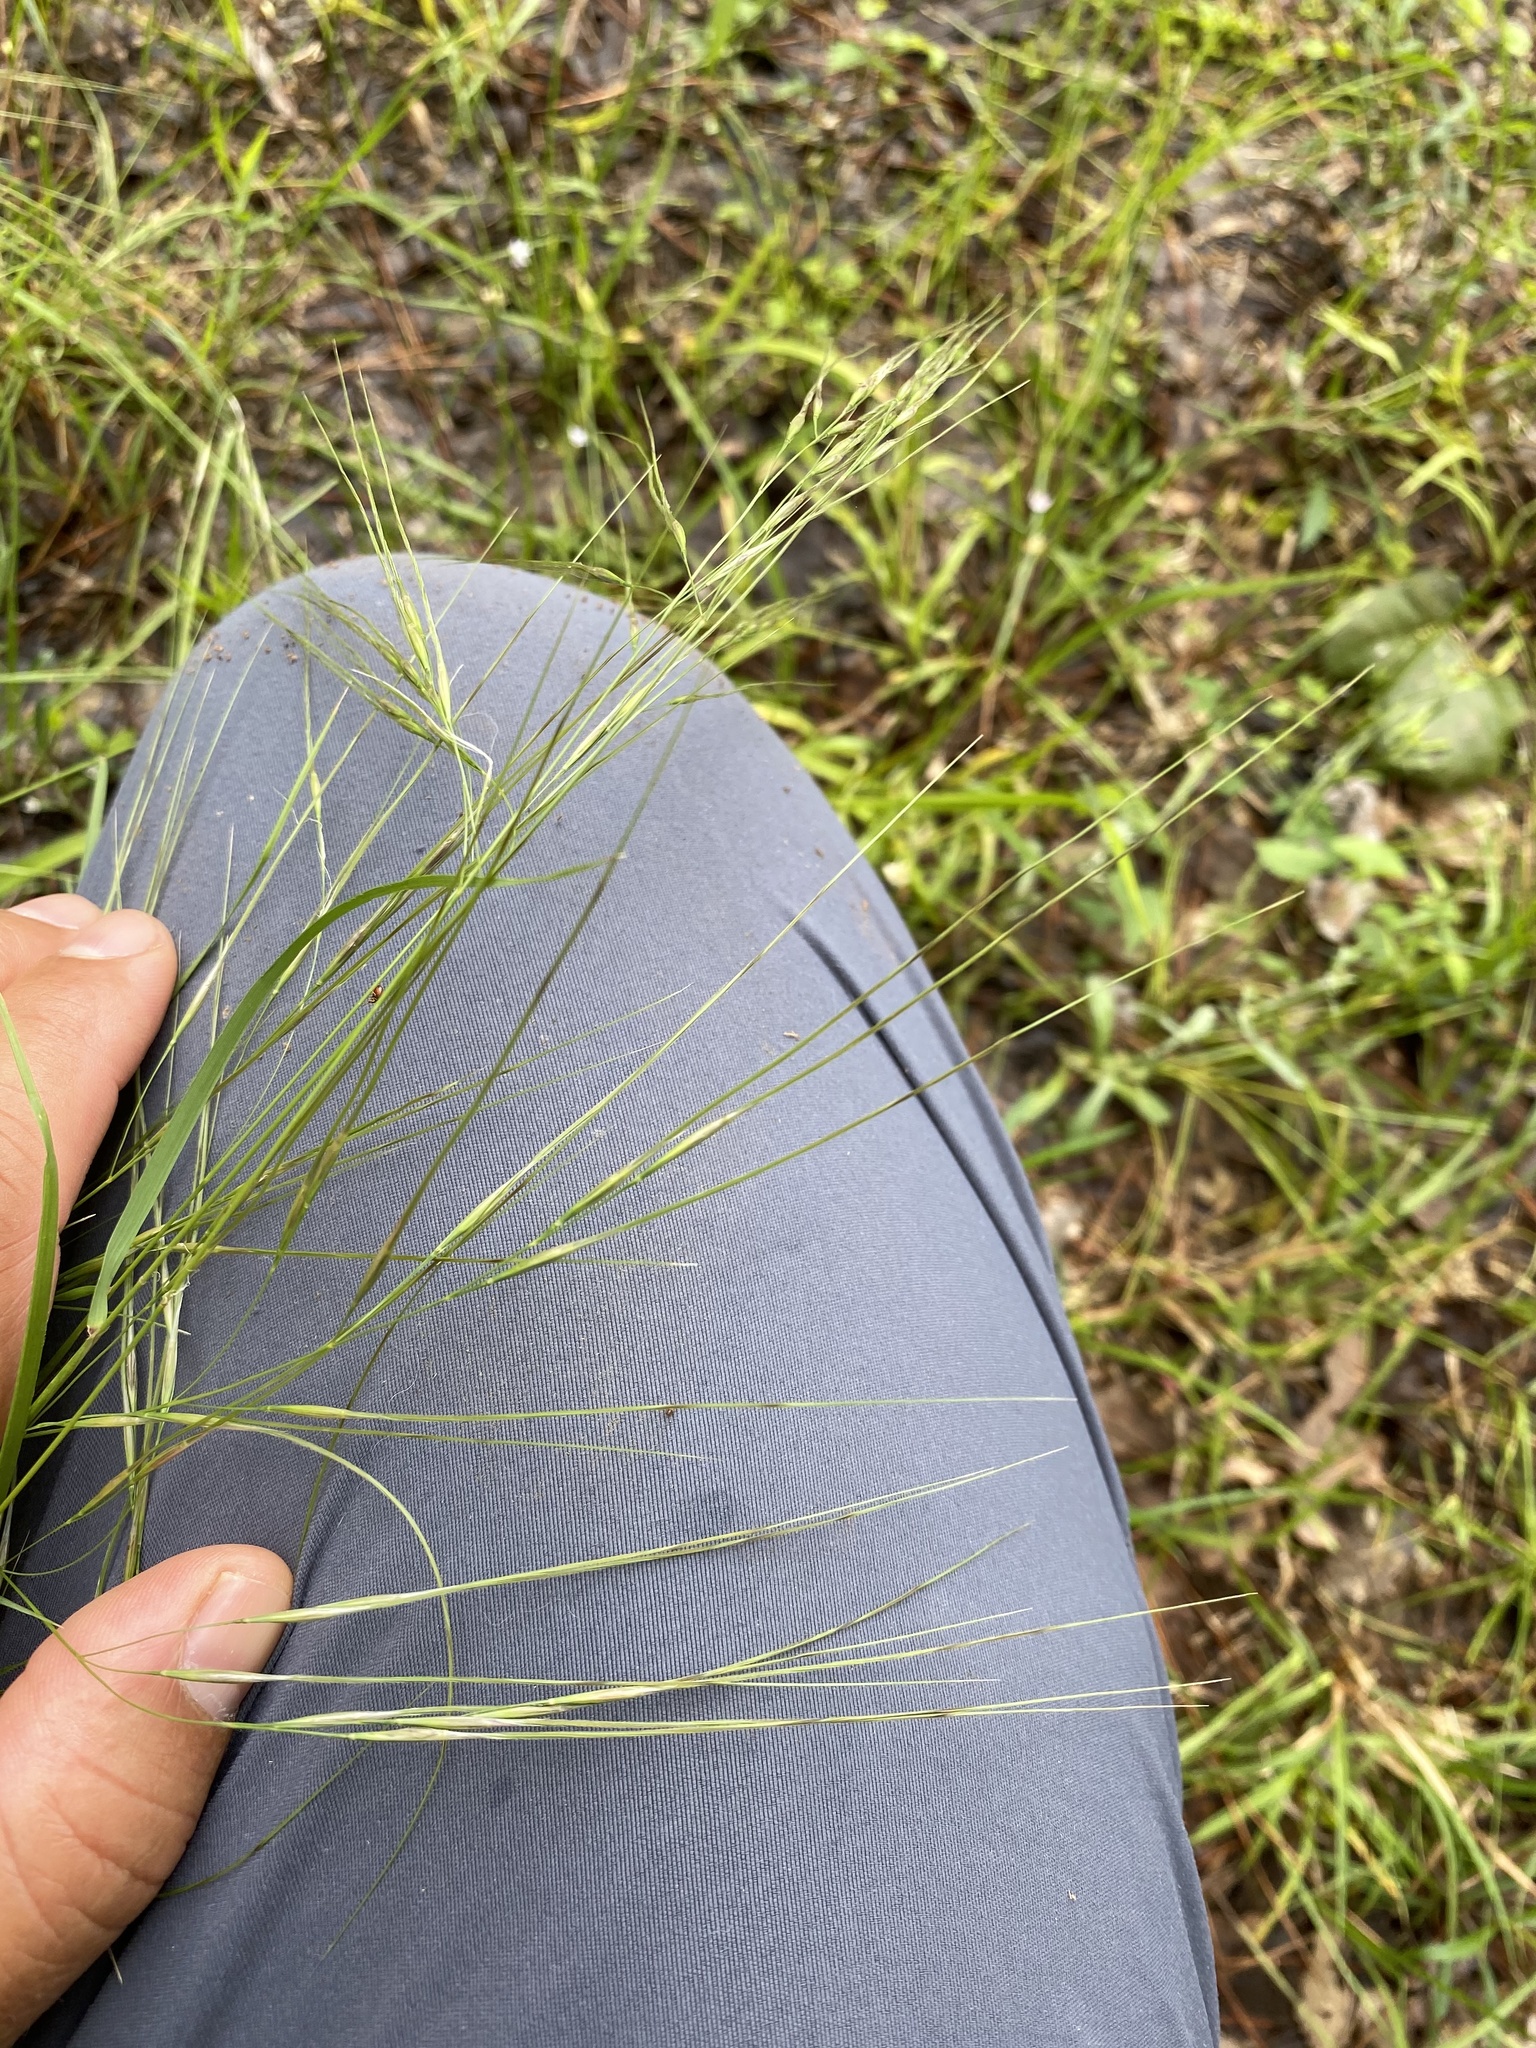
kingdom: Plantae
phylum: Tracheophyta
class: Liliopsida
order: Poales
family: Poaceae
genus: Nassella
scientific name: Nassella leucotricha
